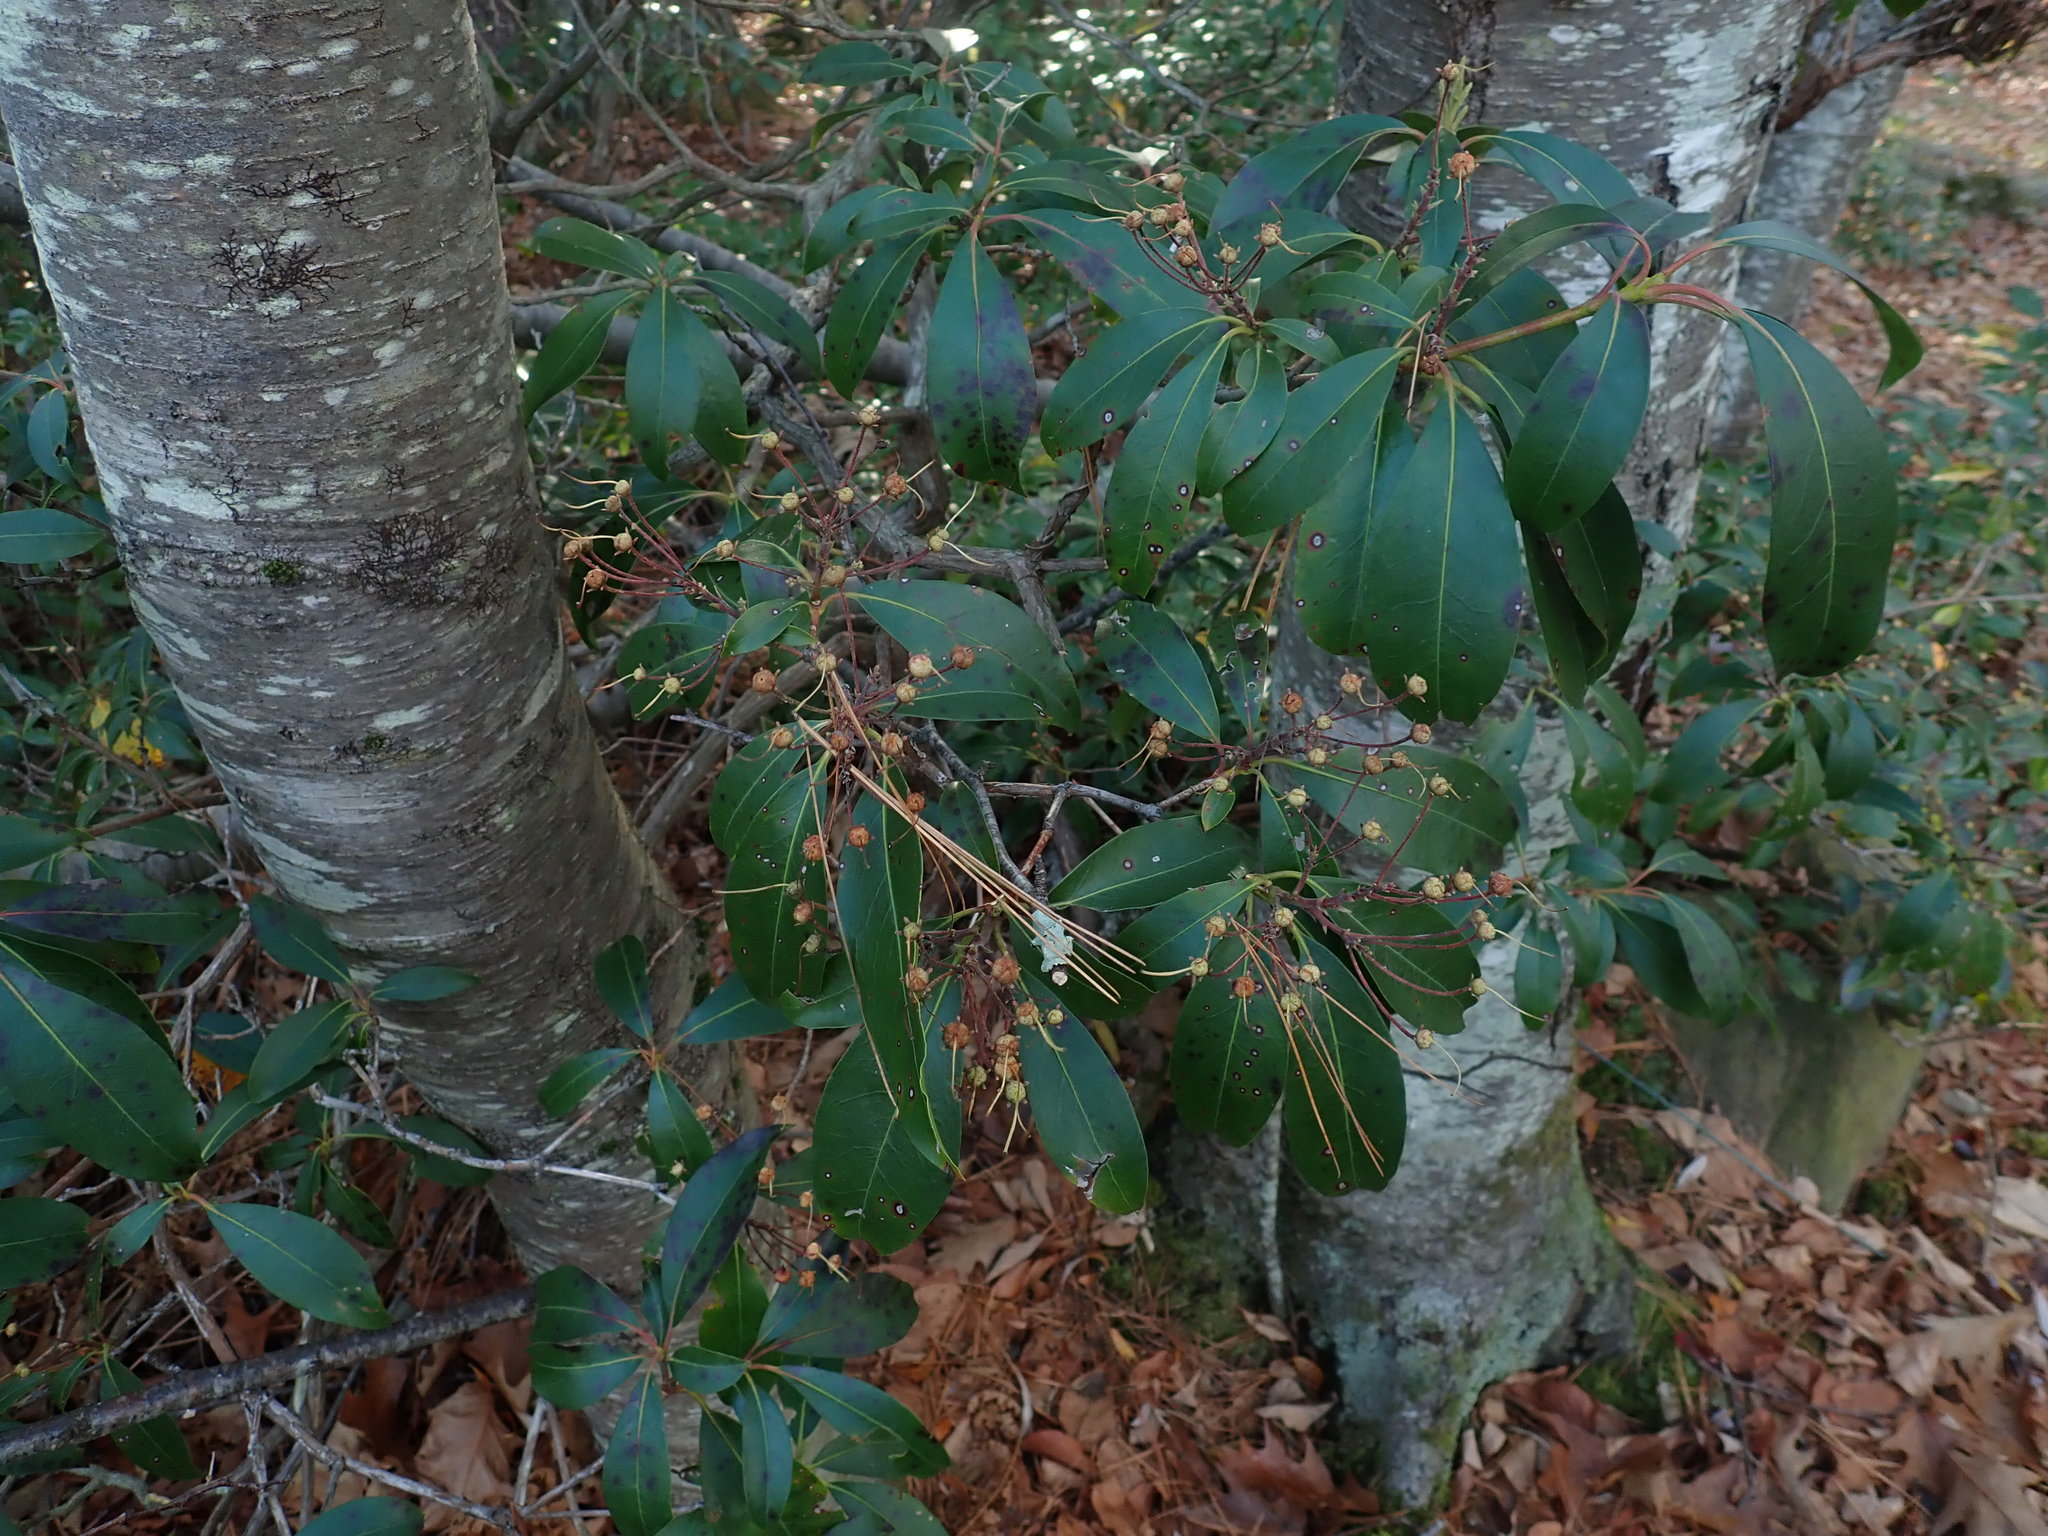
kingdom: Plantae
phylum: Tracheophyta
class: Magnoliopsida
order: Ericales
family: Ericaceae
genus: Kalmia
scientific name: Kalmia latifolia
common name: Mountain-laurel
